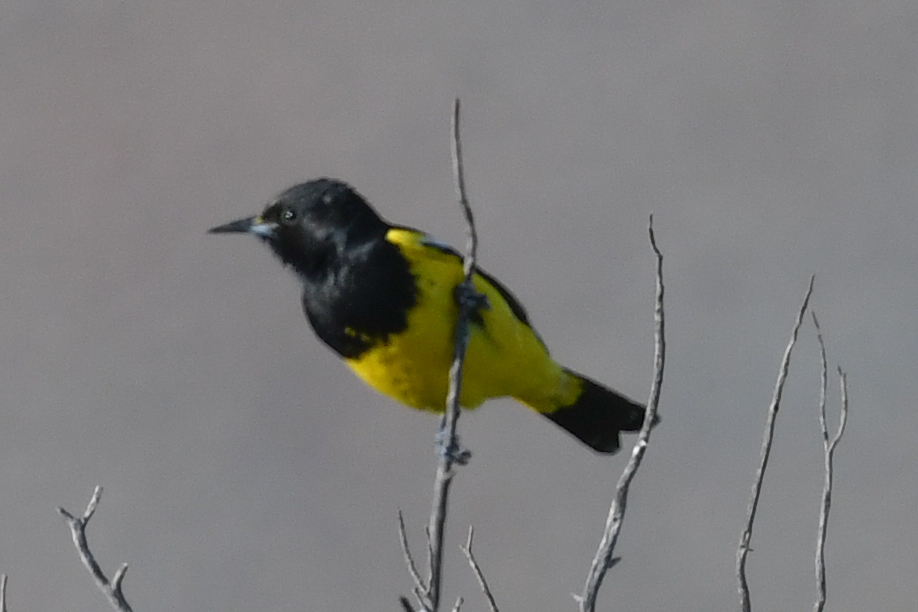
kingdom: Animalia
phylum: Chordata
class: Aves
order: Passeriformes
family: Icteridae
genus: Icterus
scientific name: Icterus parisorum
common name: Scott's oriole
